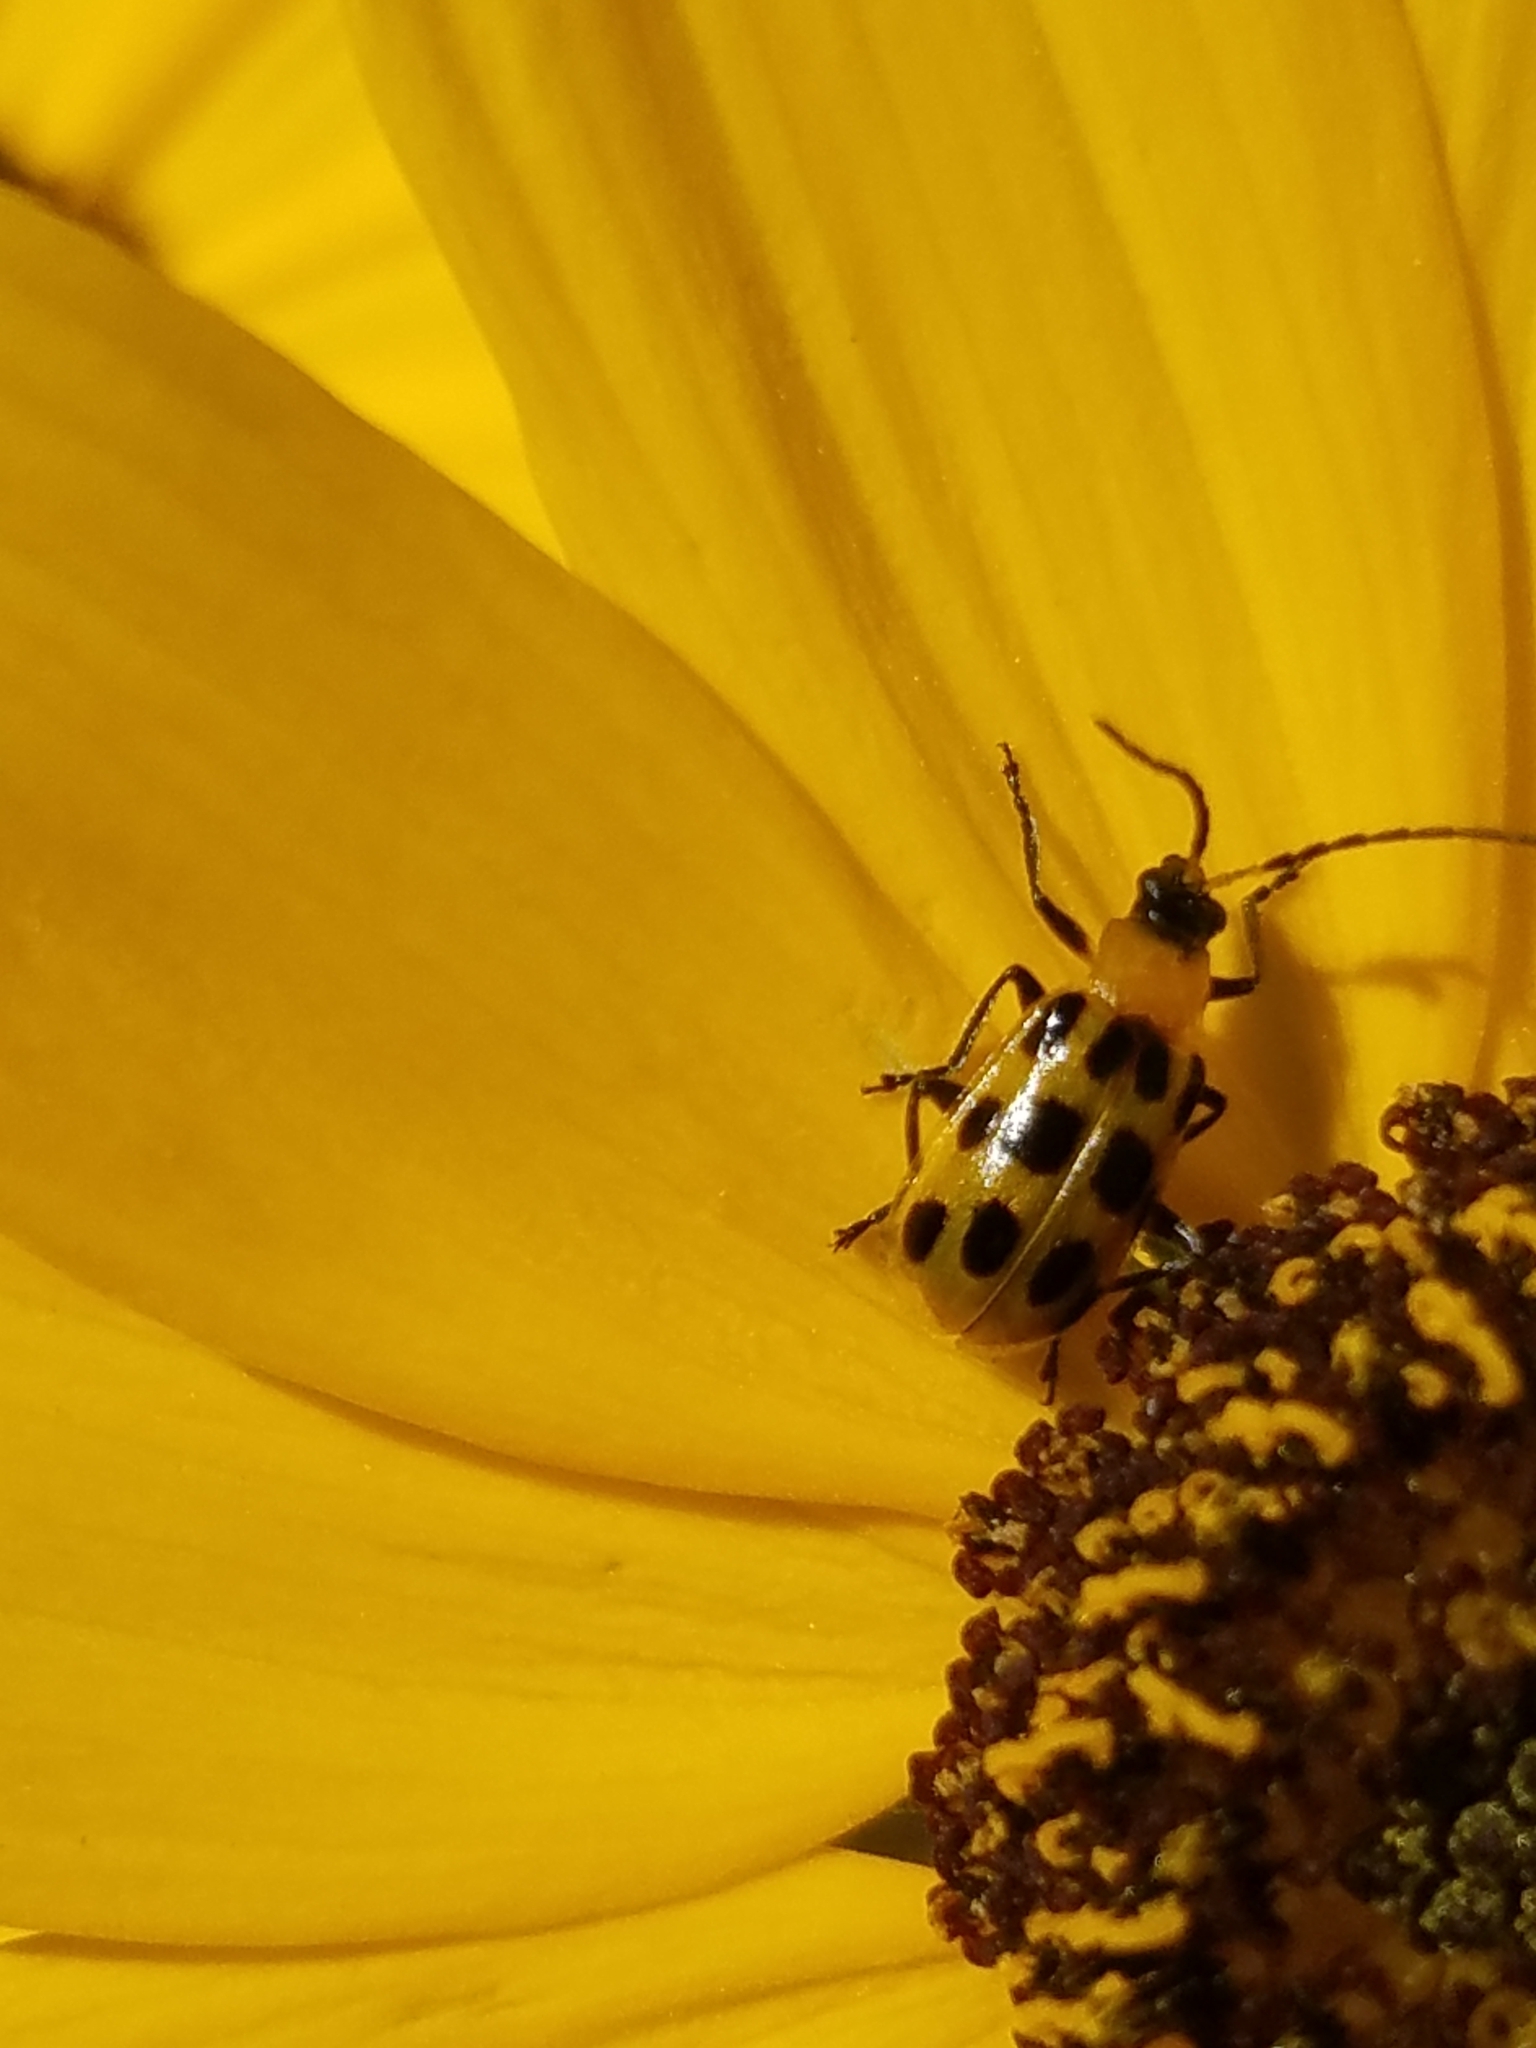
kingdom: Animalia
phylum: Arthropoda
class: Insecta
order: Coleoptera
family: Chrysomelidae
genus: Diabrotica
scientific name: Diabrotica undecimpunctata
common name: Spotted cucumber beetle
